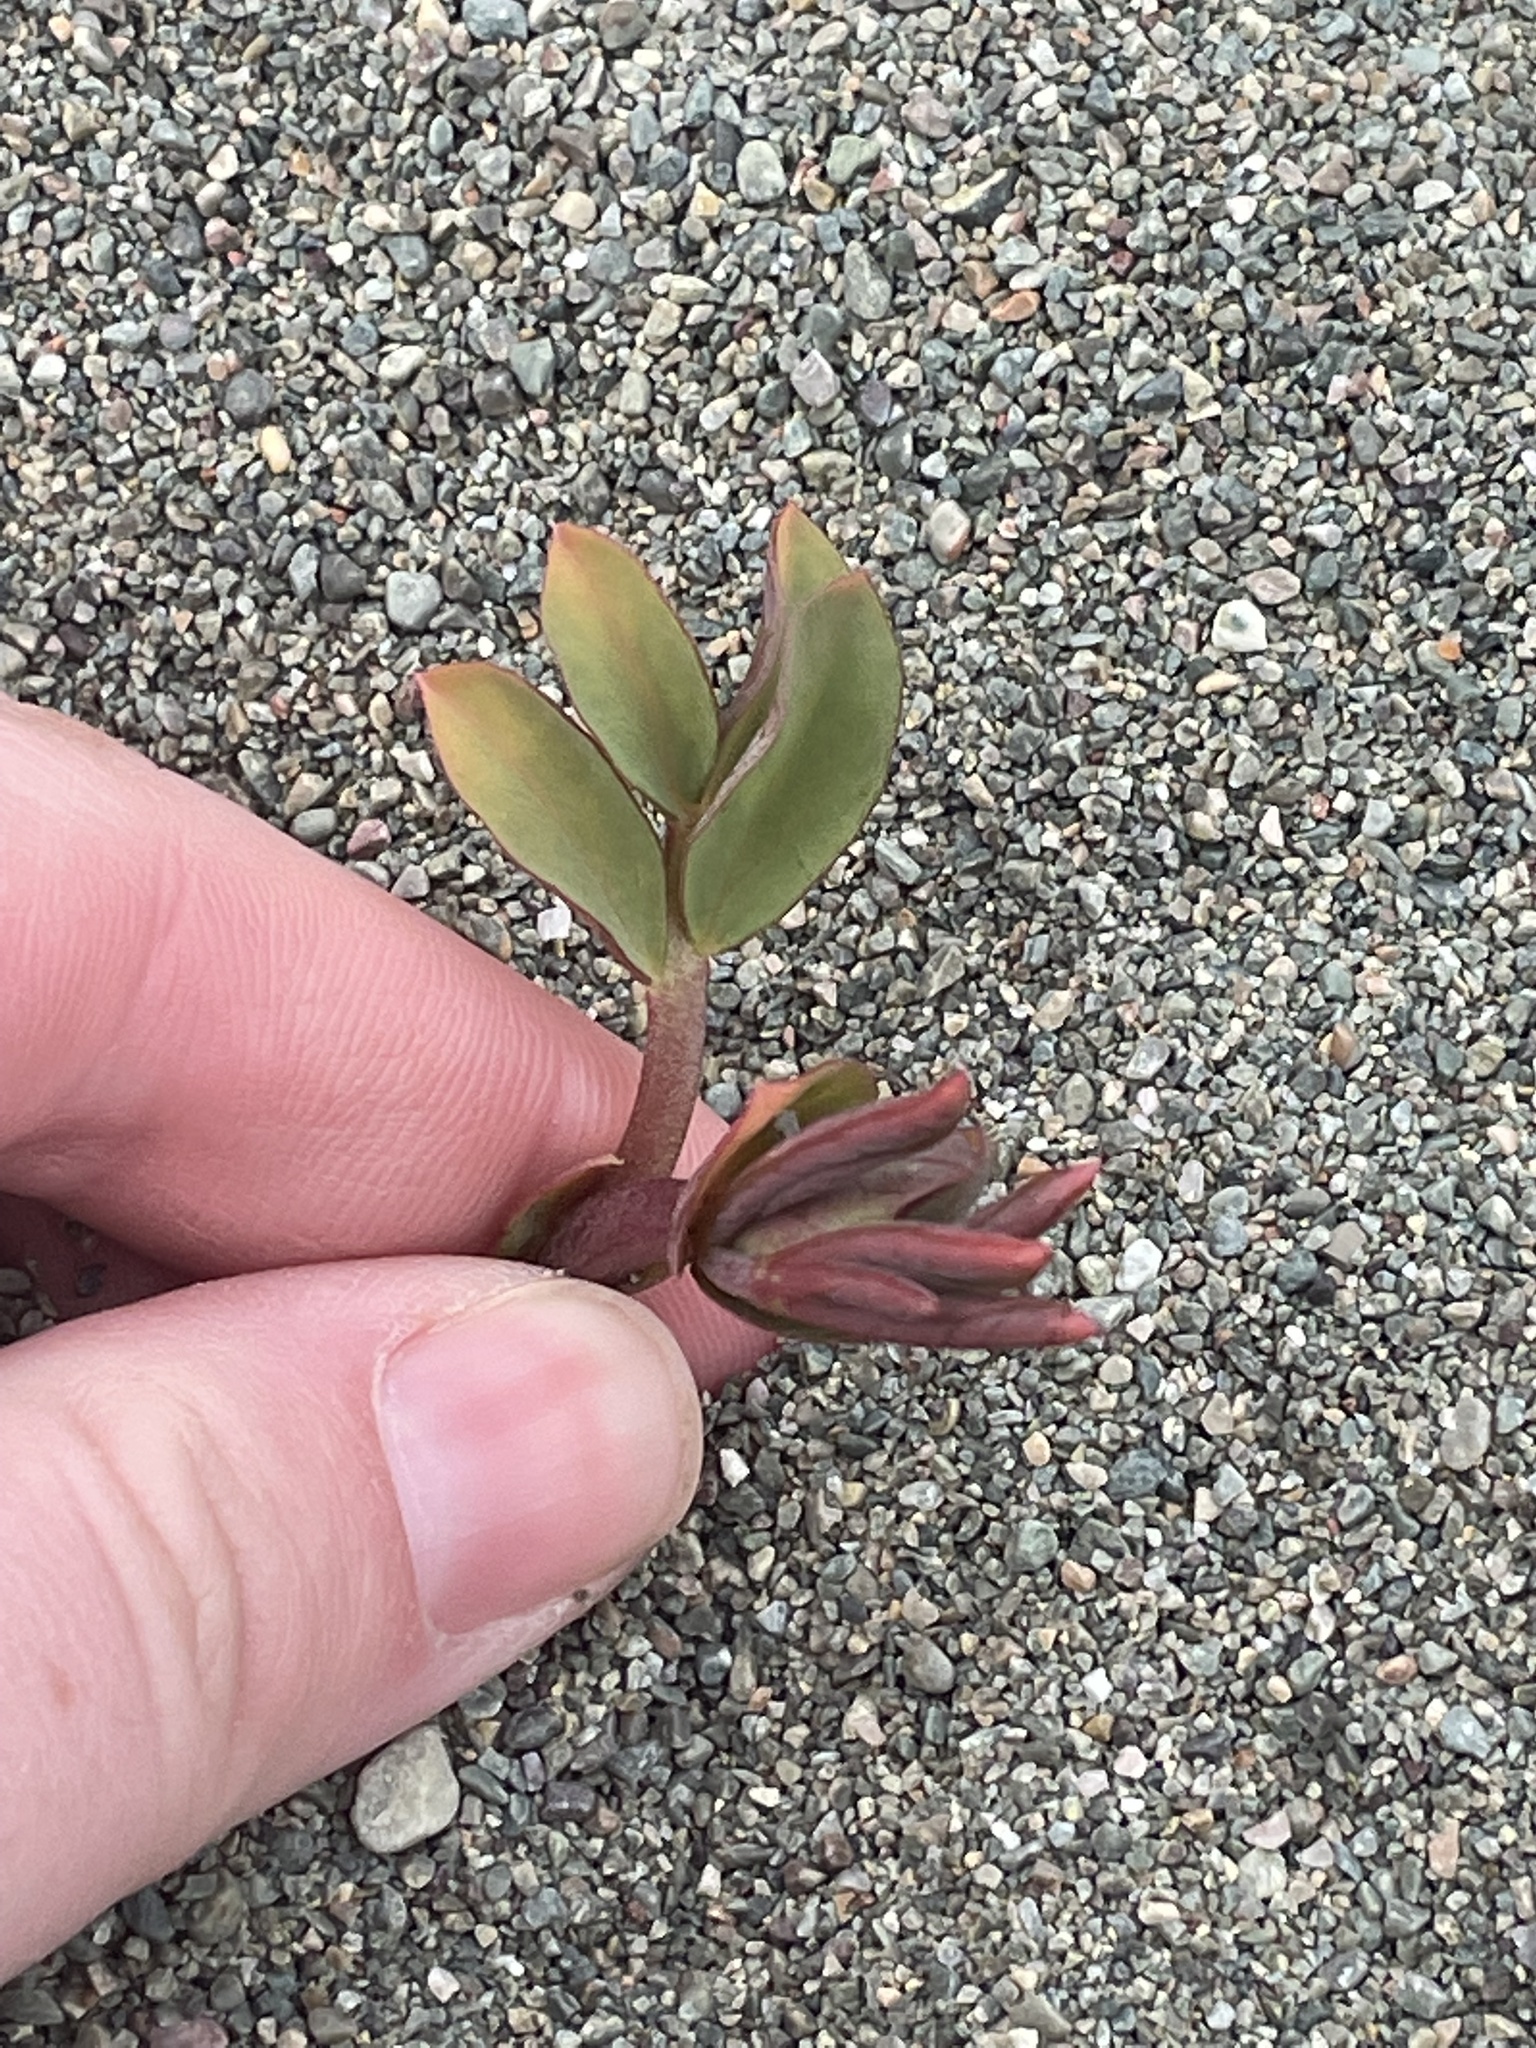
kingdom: Plantae
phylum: Tracheophyta
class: Magnoliopsida
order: Fabales
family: Fabaceae
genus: Lathyrus
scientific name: Lathyrus japonicus
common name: Sea pea
